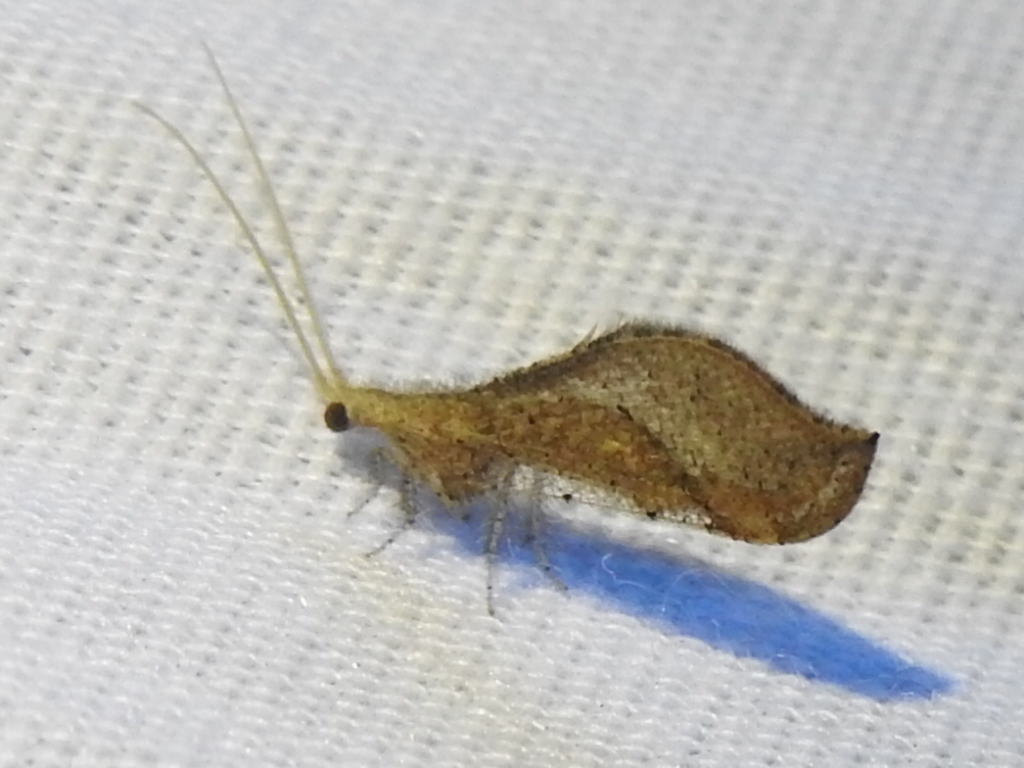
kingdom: Animalia
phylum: Arthropoda
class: Insecta
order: Neuroptera
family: Berothidae
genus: Lomamyia
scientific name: Lomamyia squamosa
